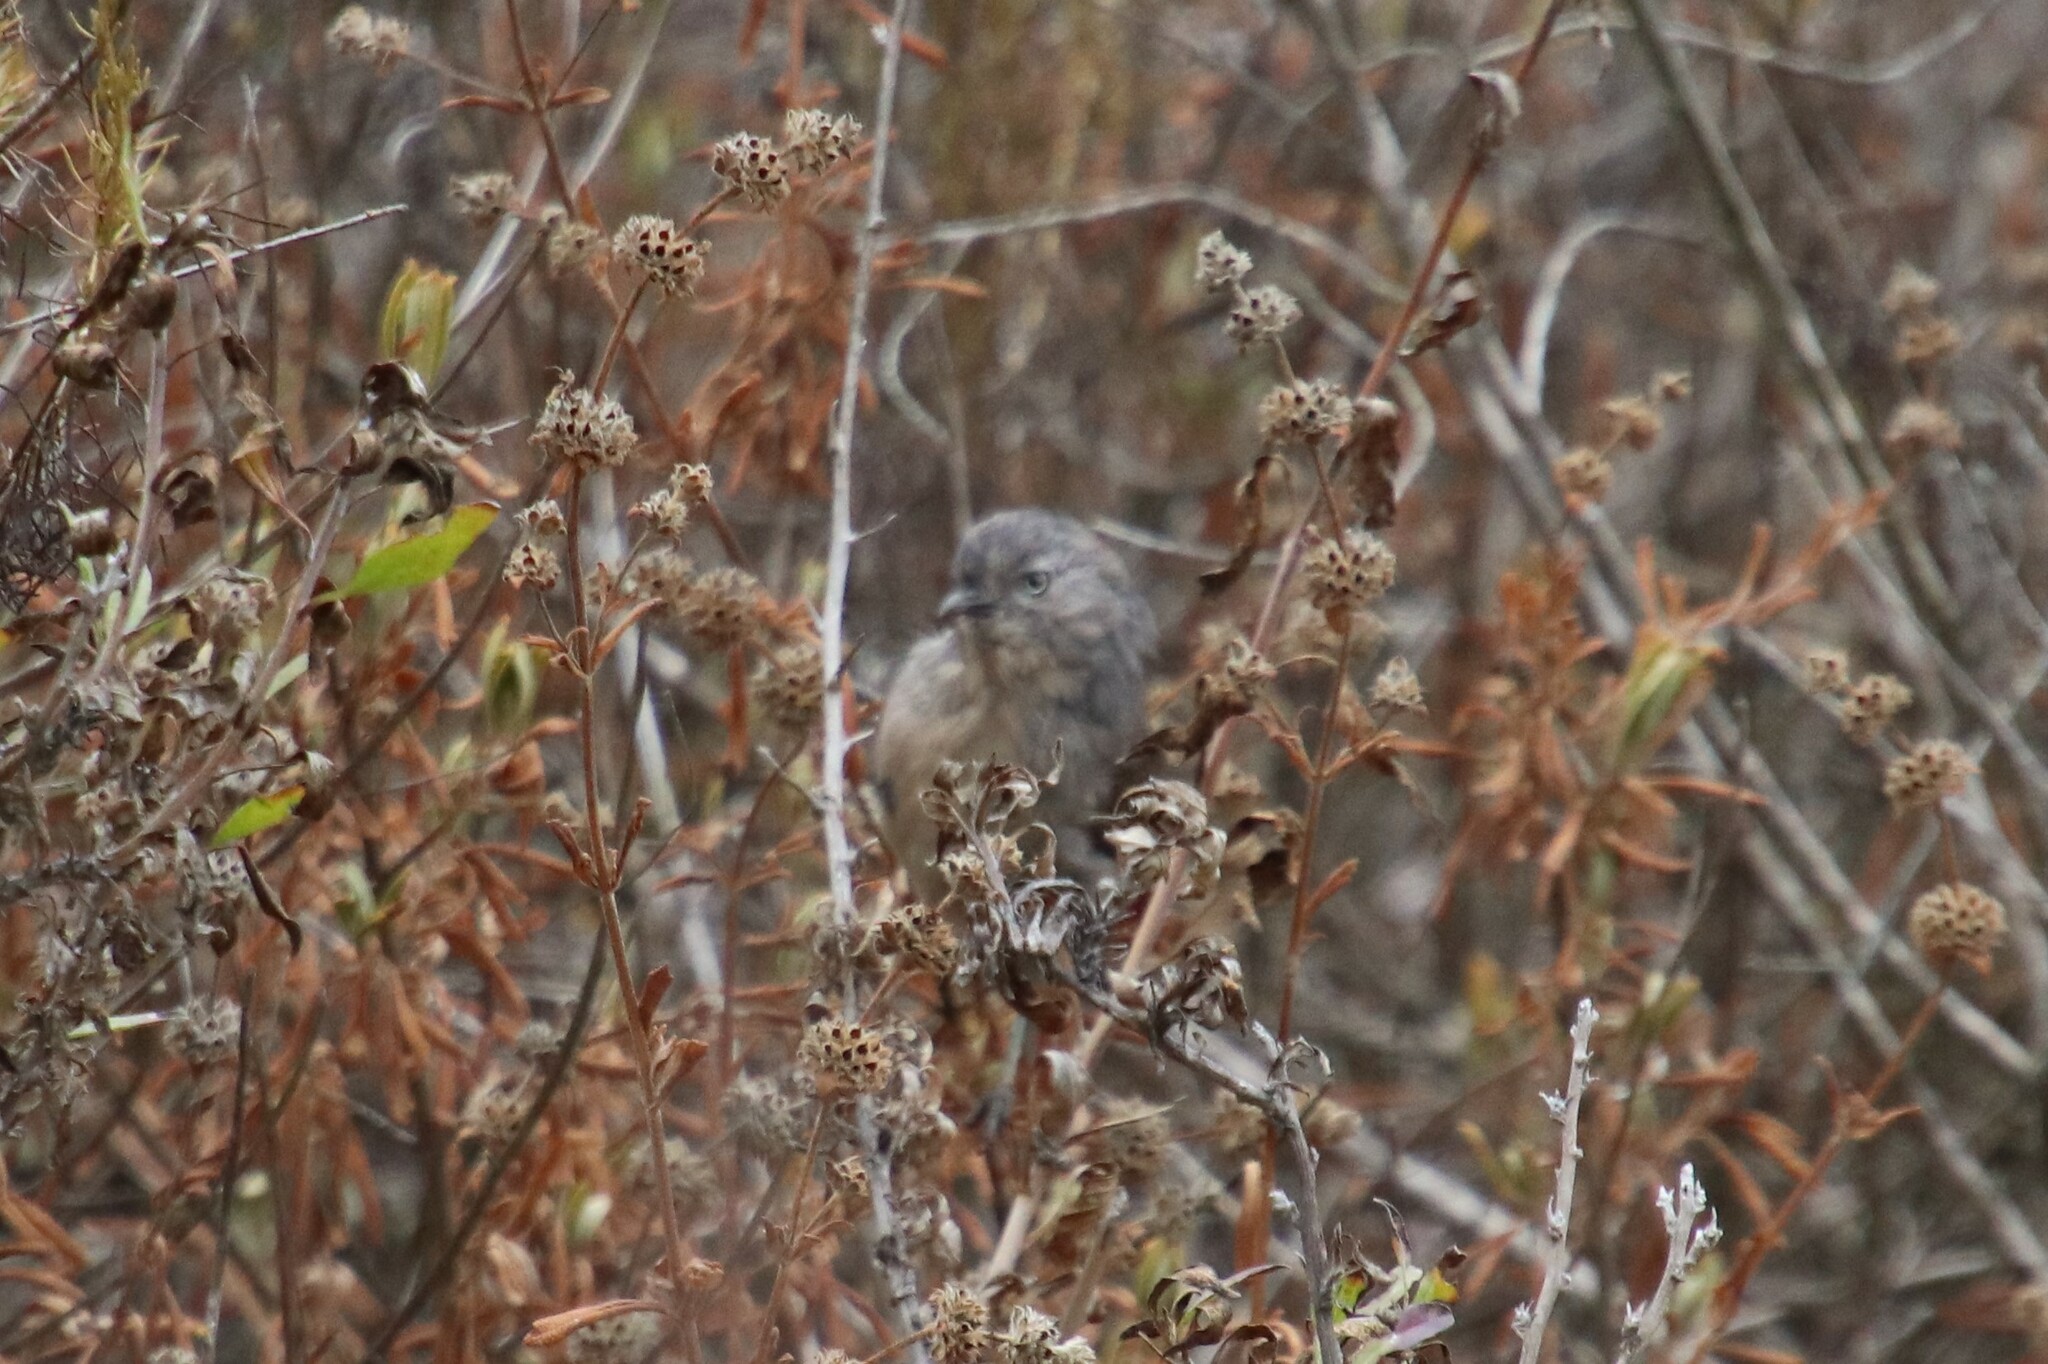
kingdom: Animalia
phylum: Chordata
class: Aves
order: Passeriformes
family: Sylviidae
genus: Chamaea
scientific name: Chamaea fasciata
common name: Wrentit
